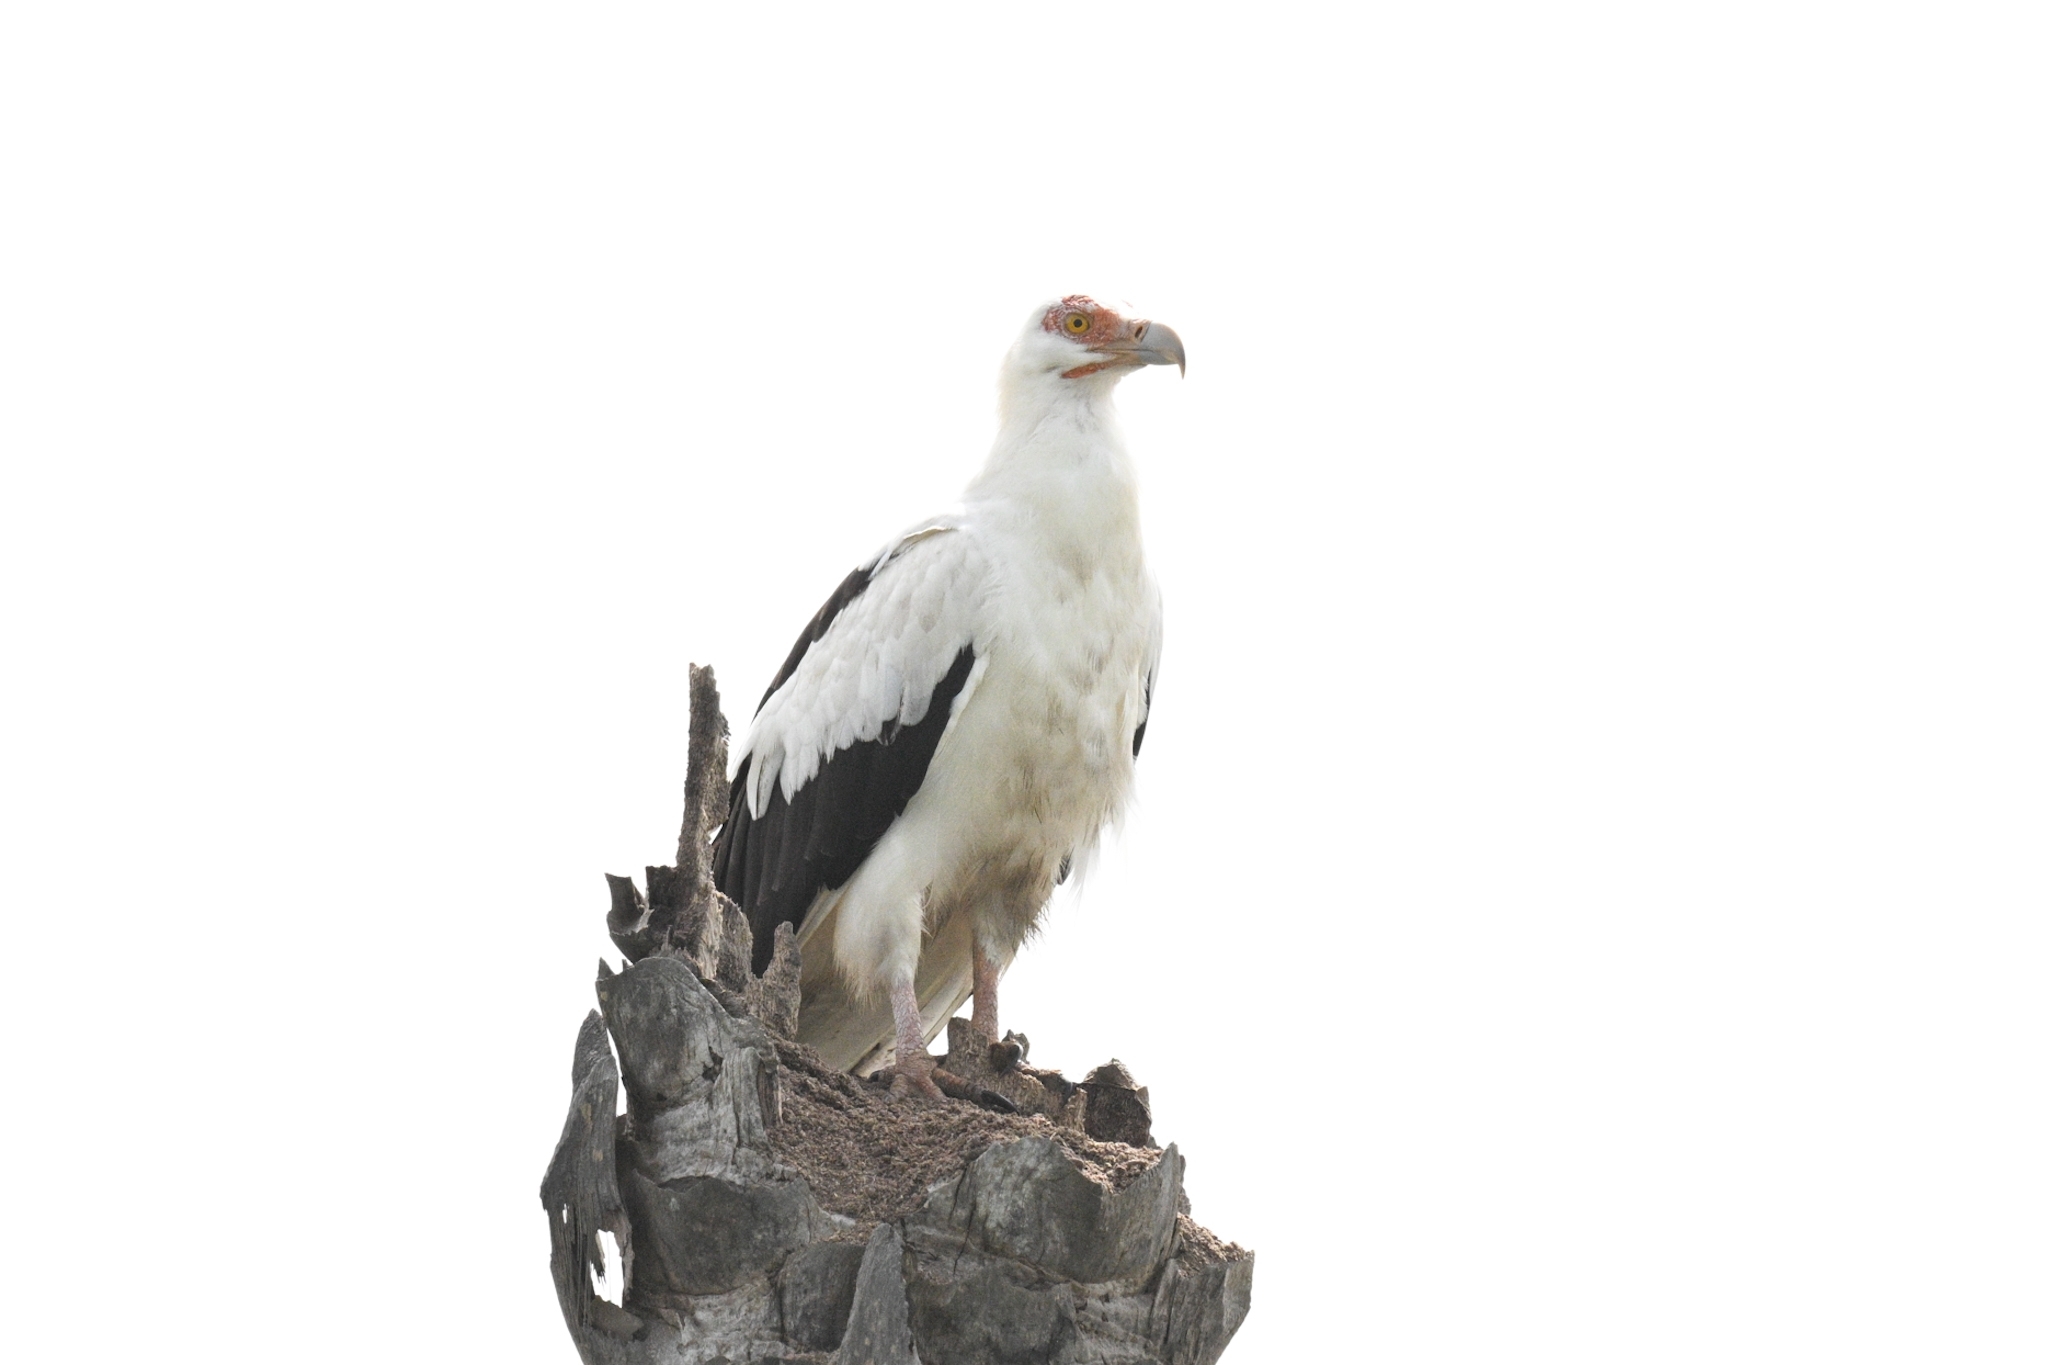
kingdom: Animalia
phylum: Chordata
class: Aves
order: Accipitriformes
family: Accipitridae
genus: Gypohierax
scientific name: Gypohierax angolensis
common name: Palm-nut vulture
